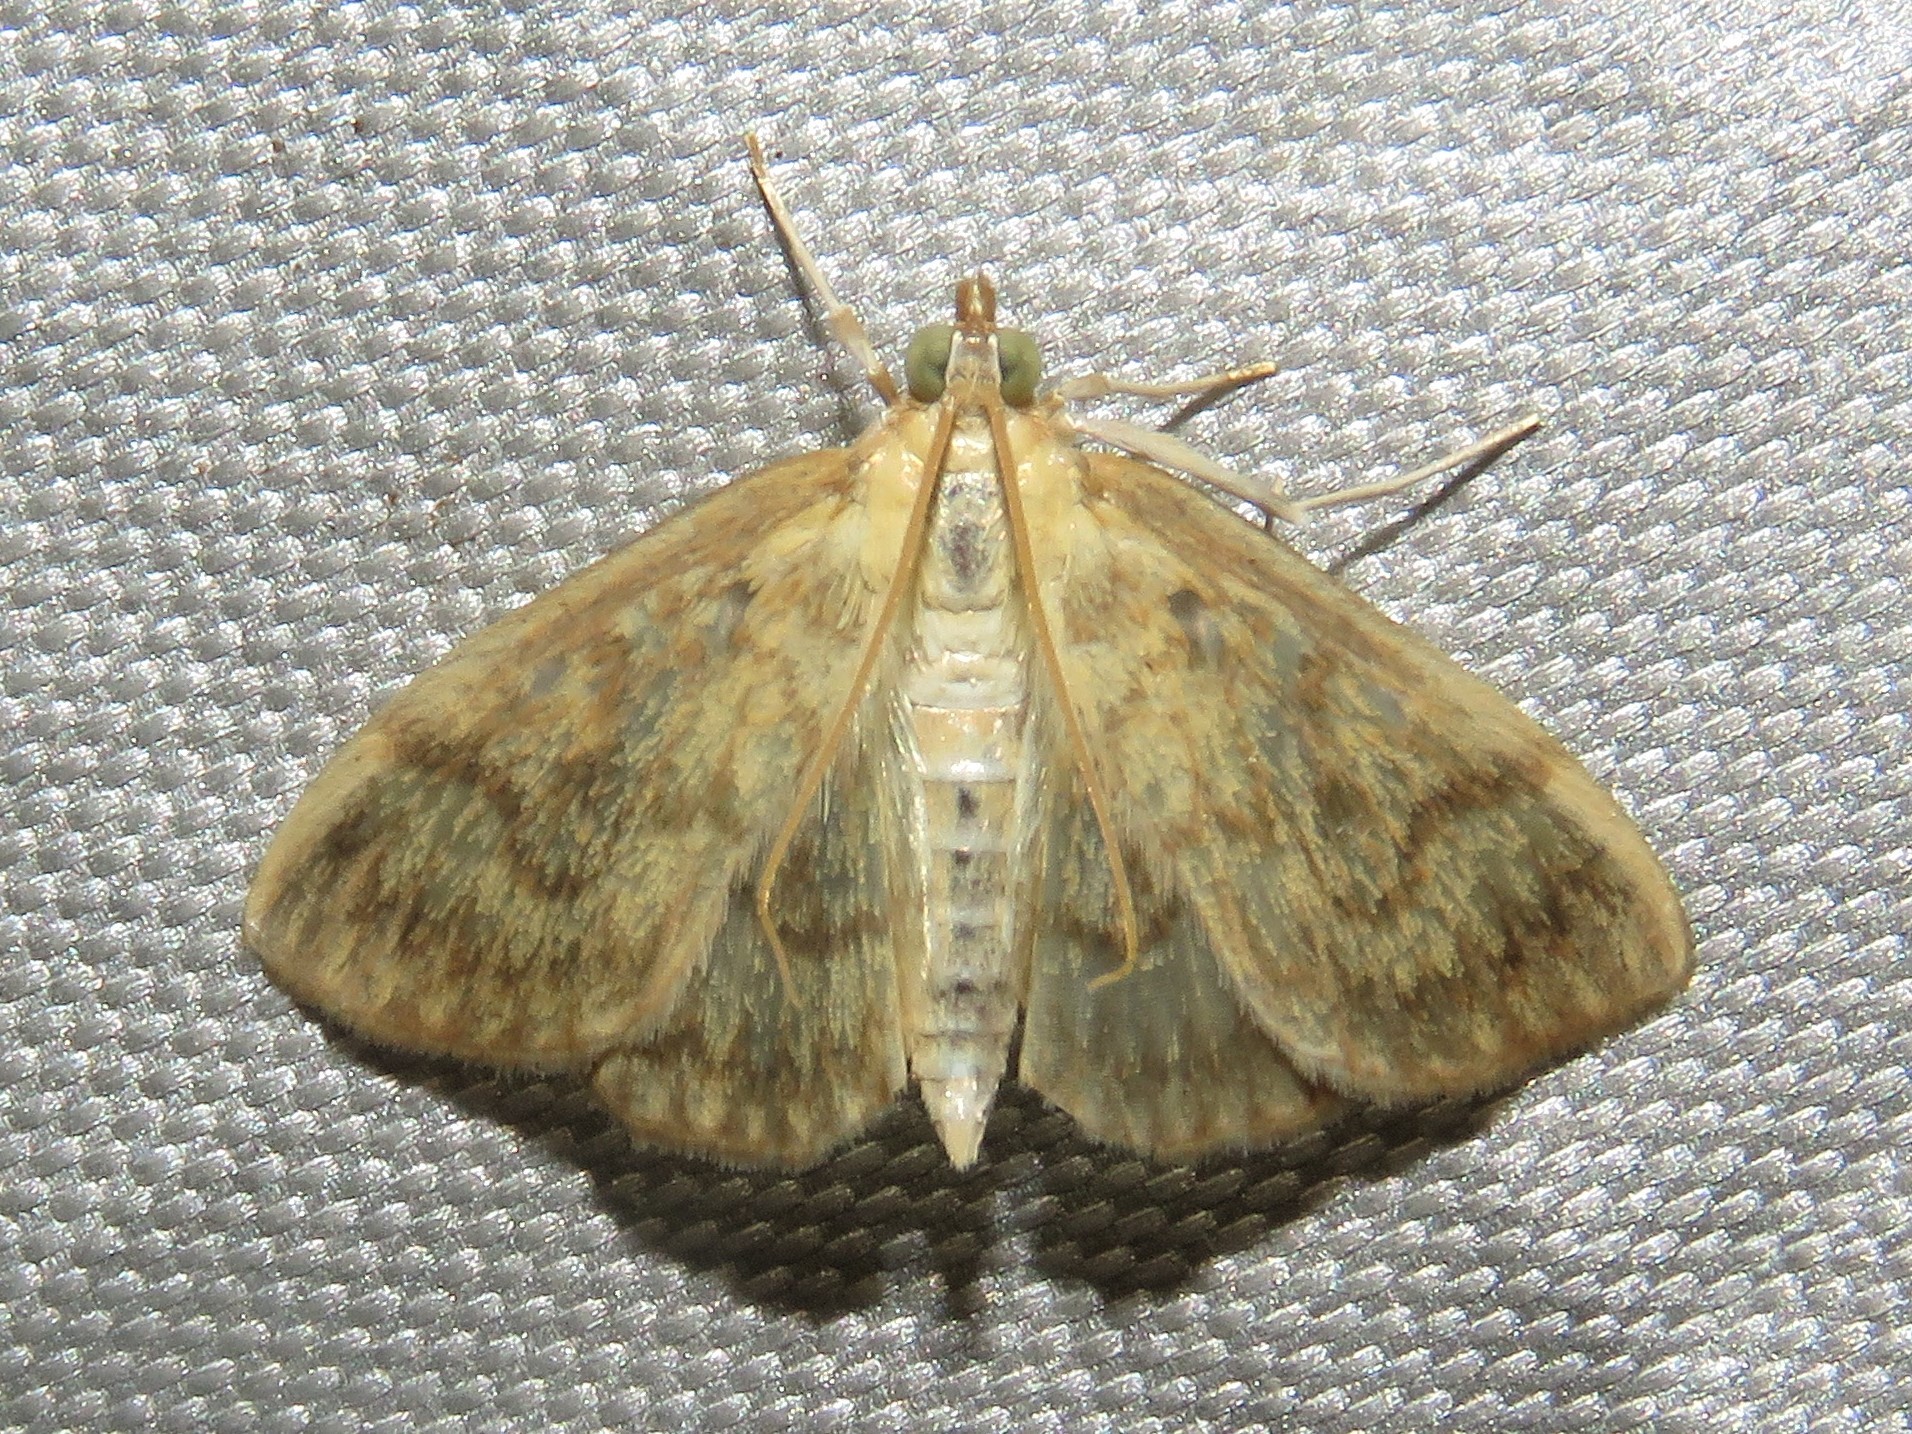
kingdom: Animalia
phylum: Arthropoda
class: Insecta
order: Lepidoptera
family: Crambidae
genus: Crocidophora
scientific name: Crocidophora serratissimalis
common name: Saw-toothed crocidophora moth
